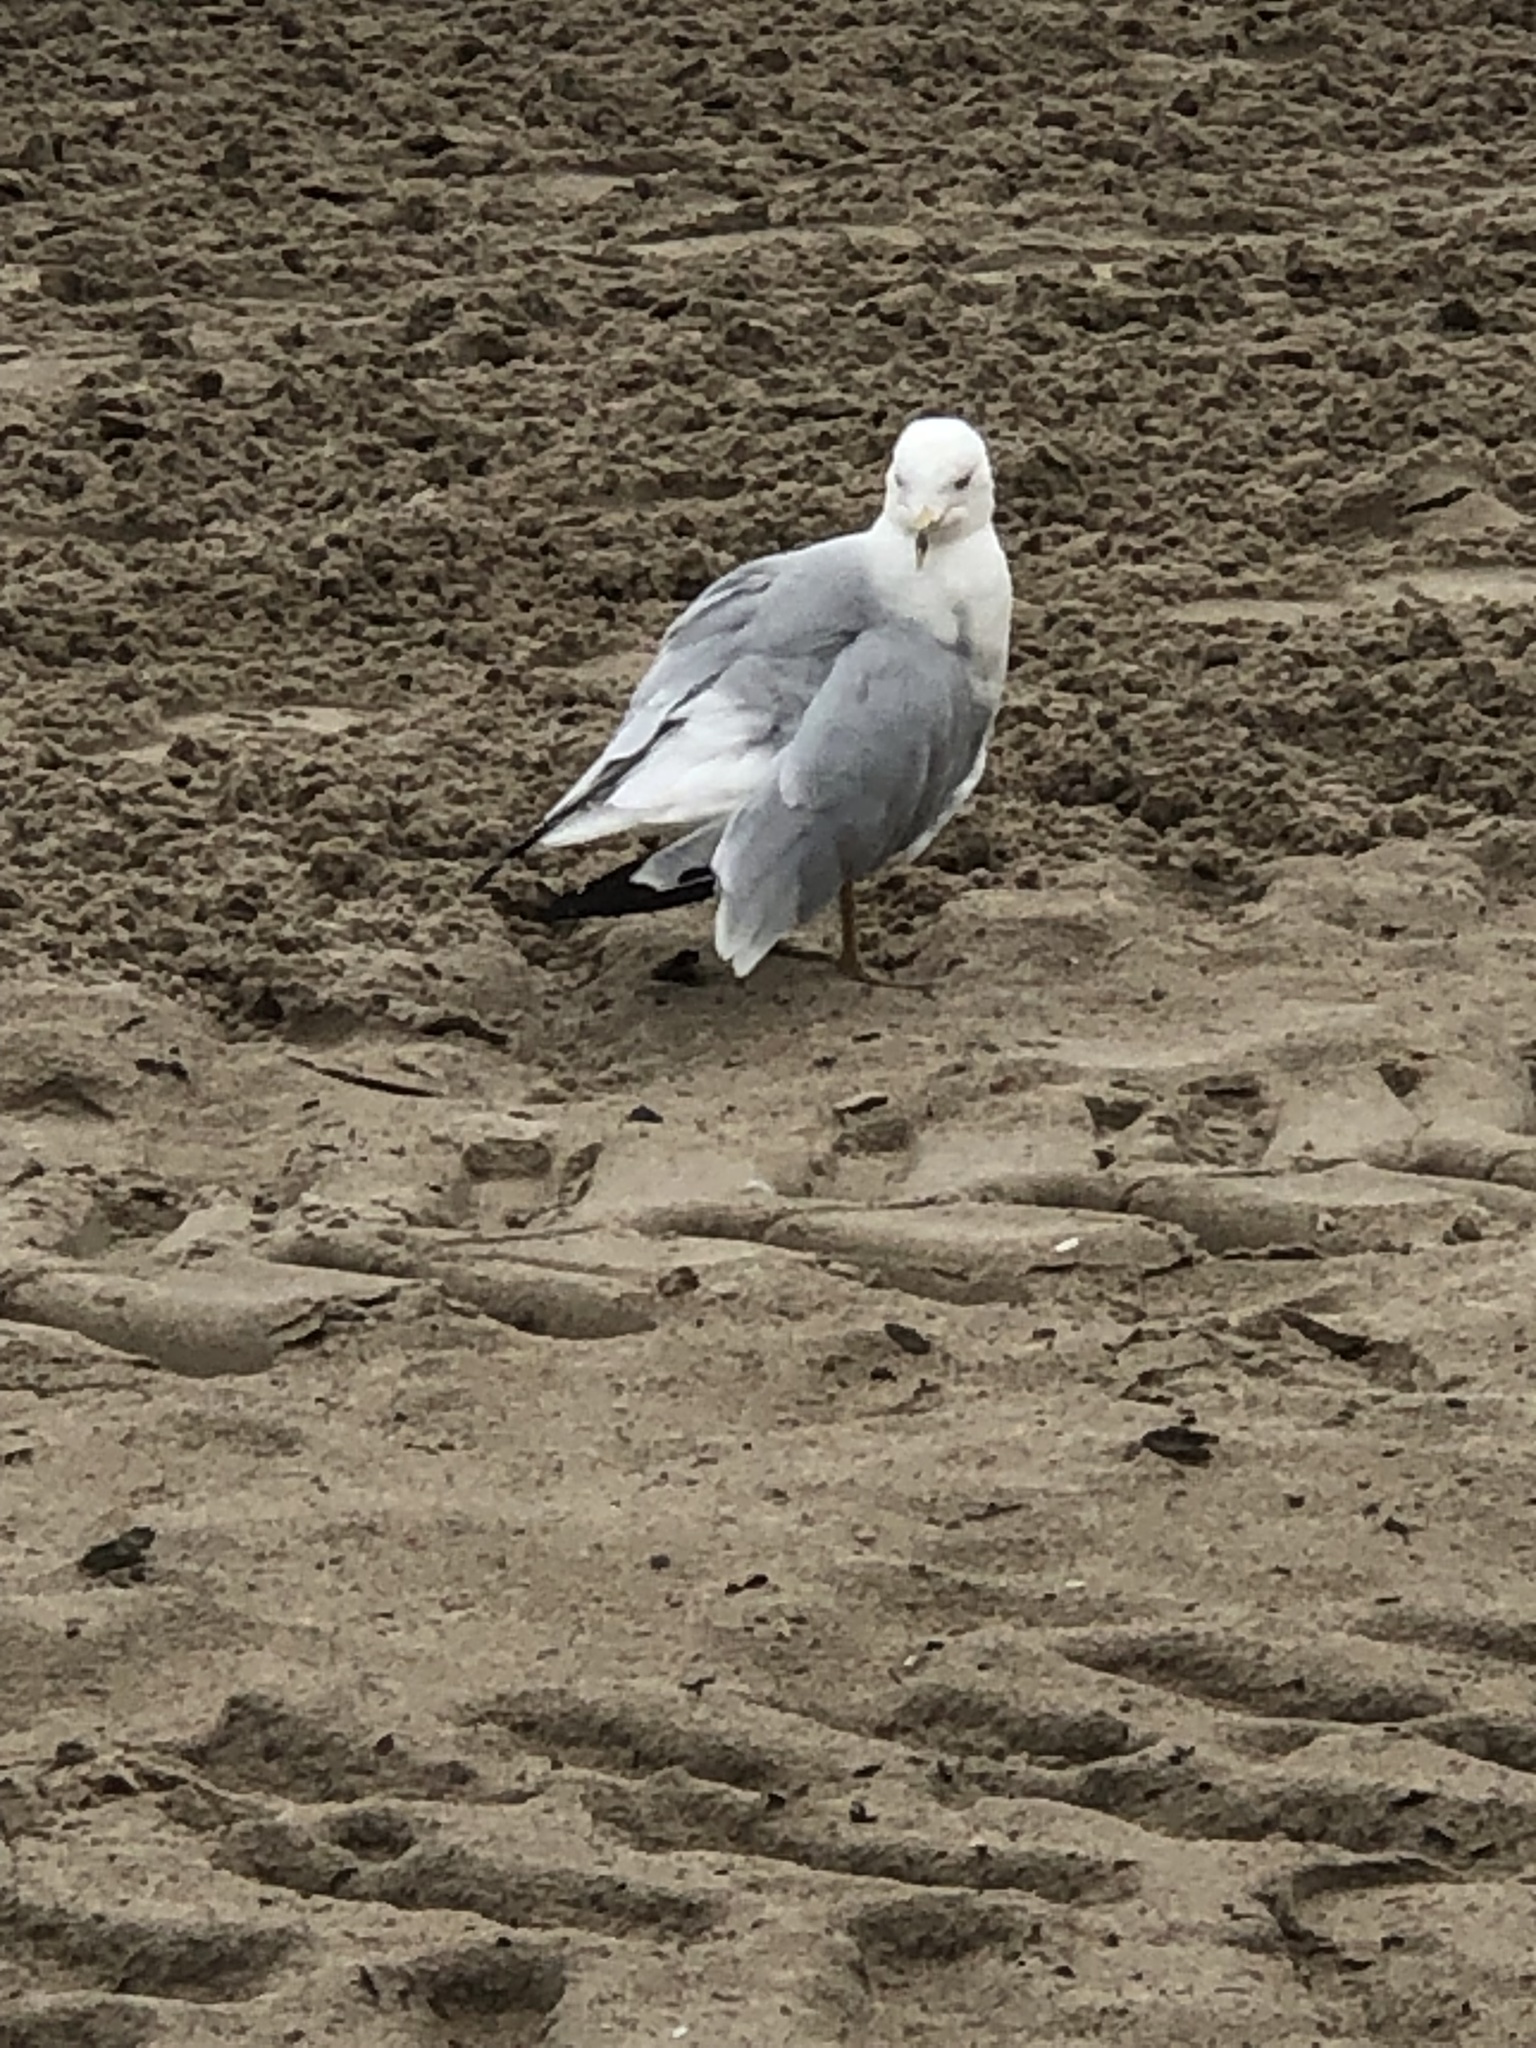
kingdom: Animalia
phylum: Chordata
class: Aves
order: Charadriiformes
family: Laridae
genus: Larus
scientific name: Larus delawarensis
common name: Ring-billed gull
